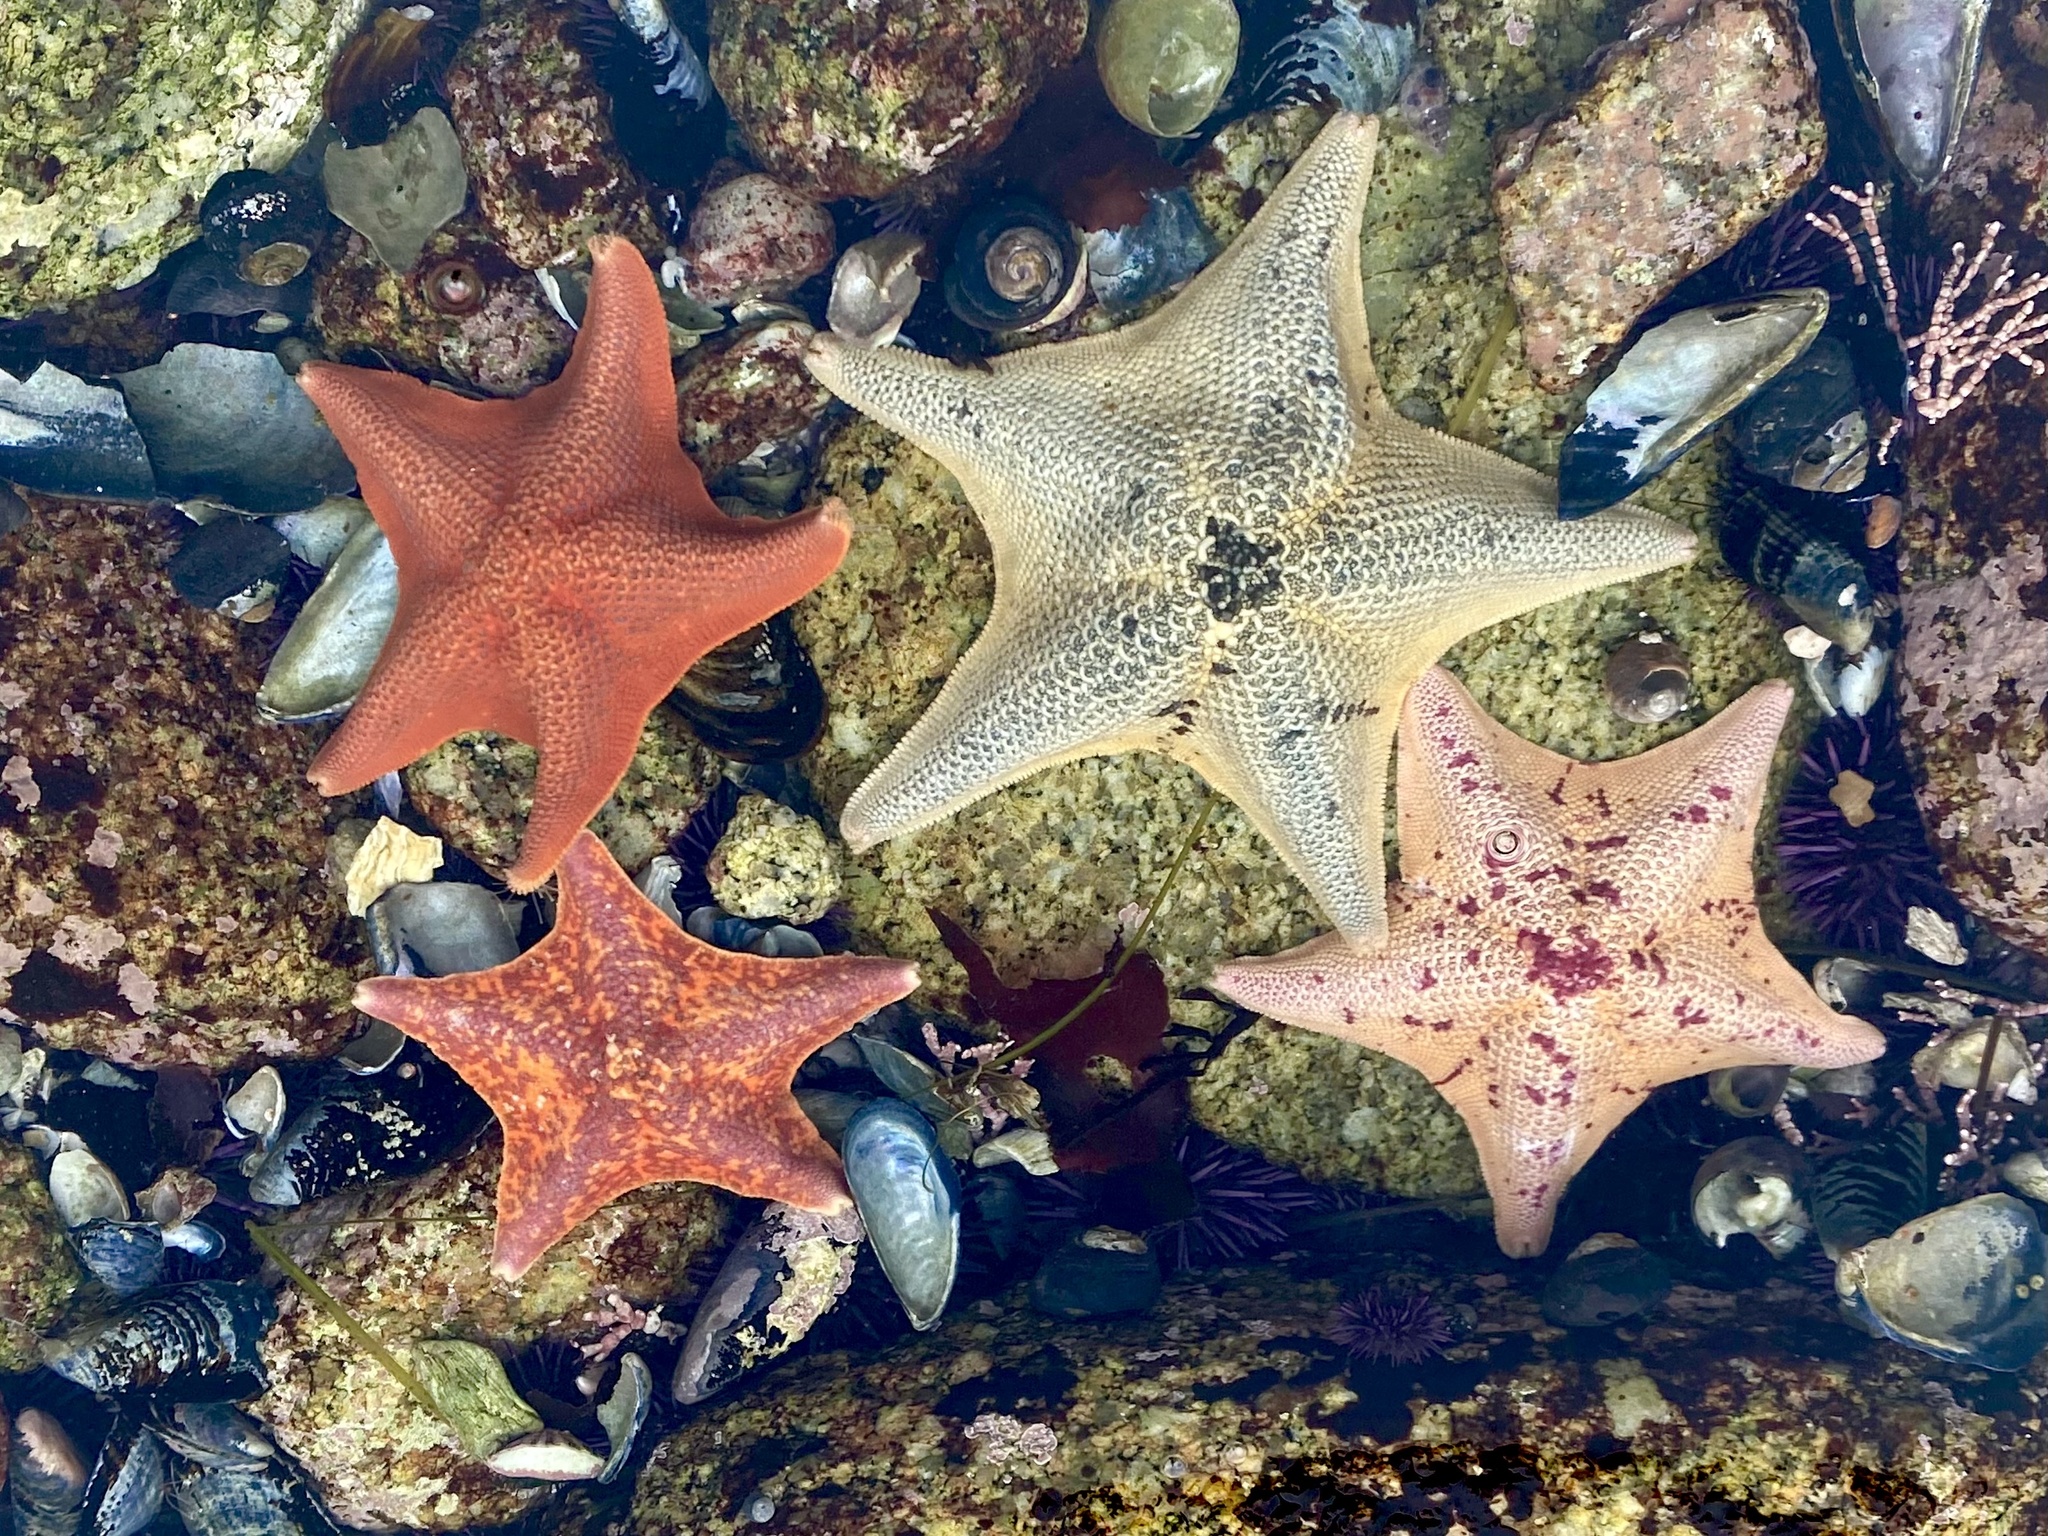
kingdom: Animalia
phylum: Echinodermata
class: Asteroidea
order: Valvatida
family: Asterinidae
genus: Patiria
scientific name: Patiria miniata
